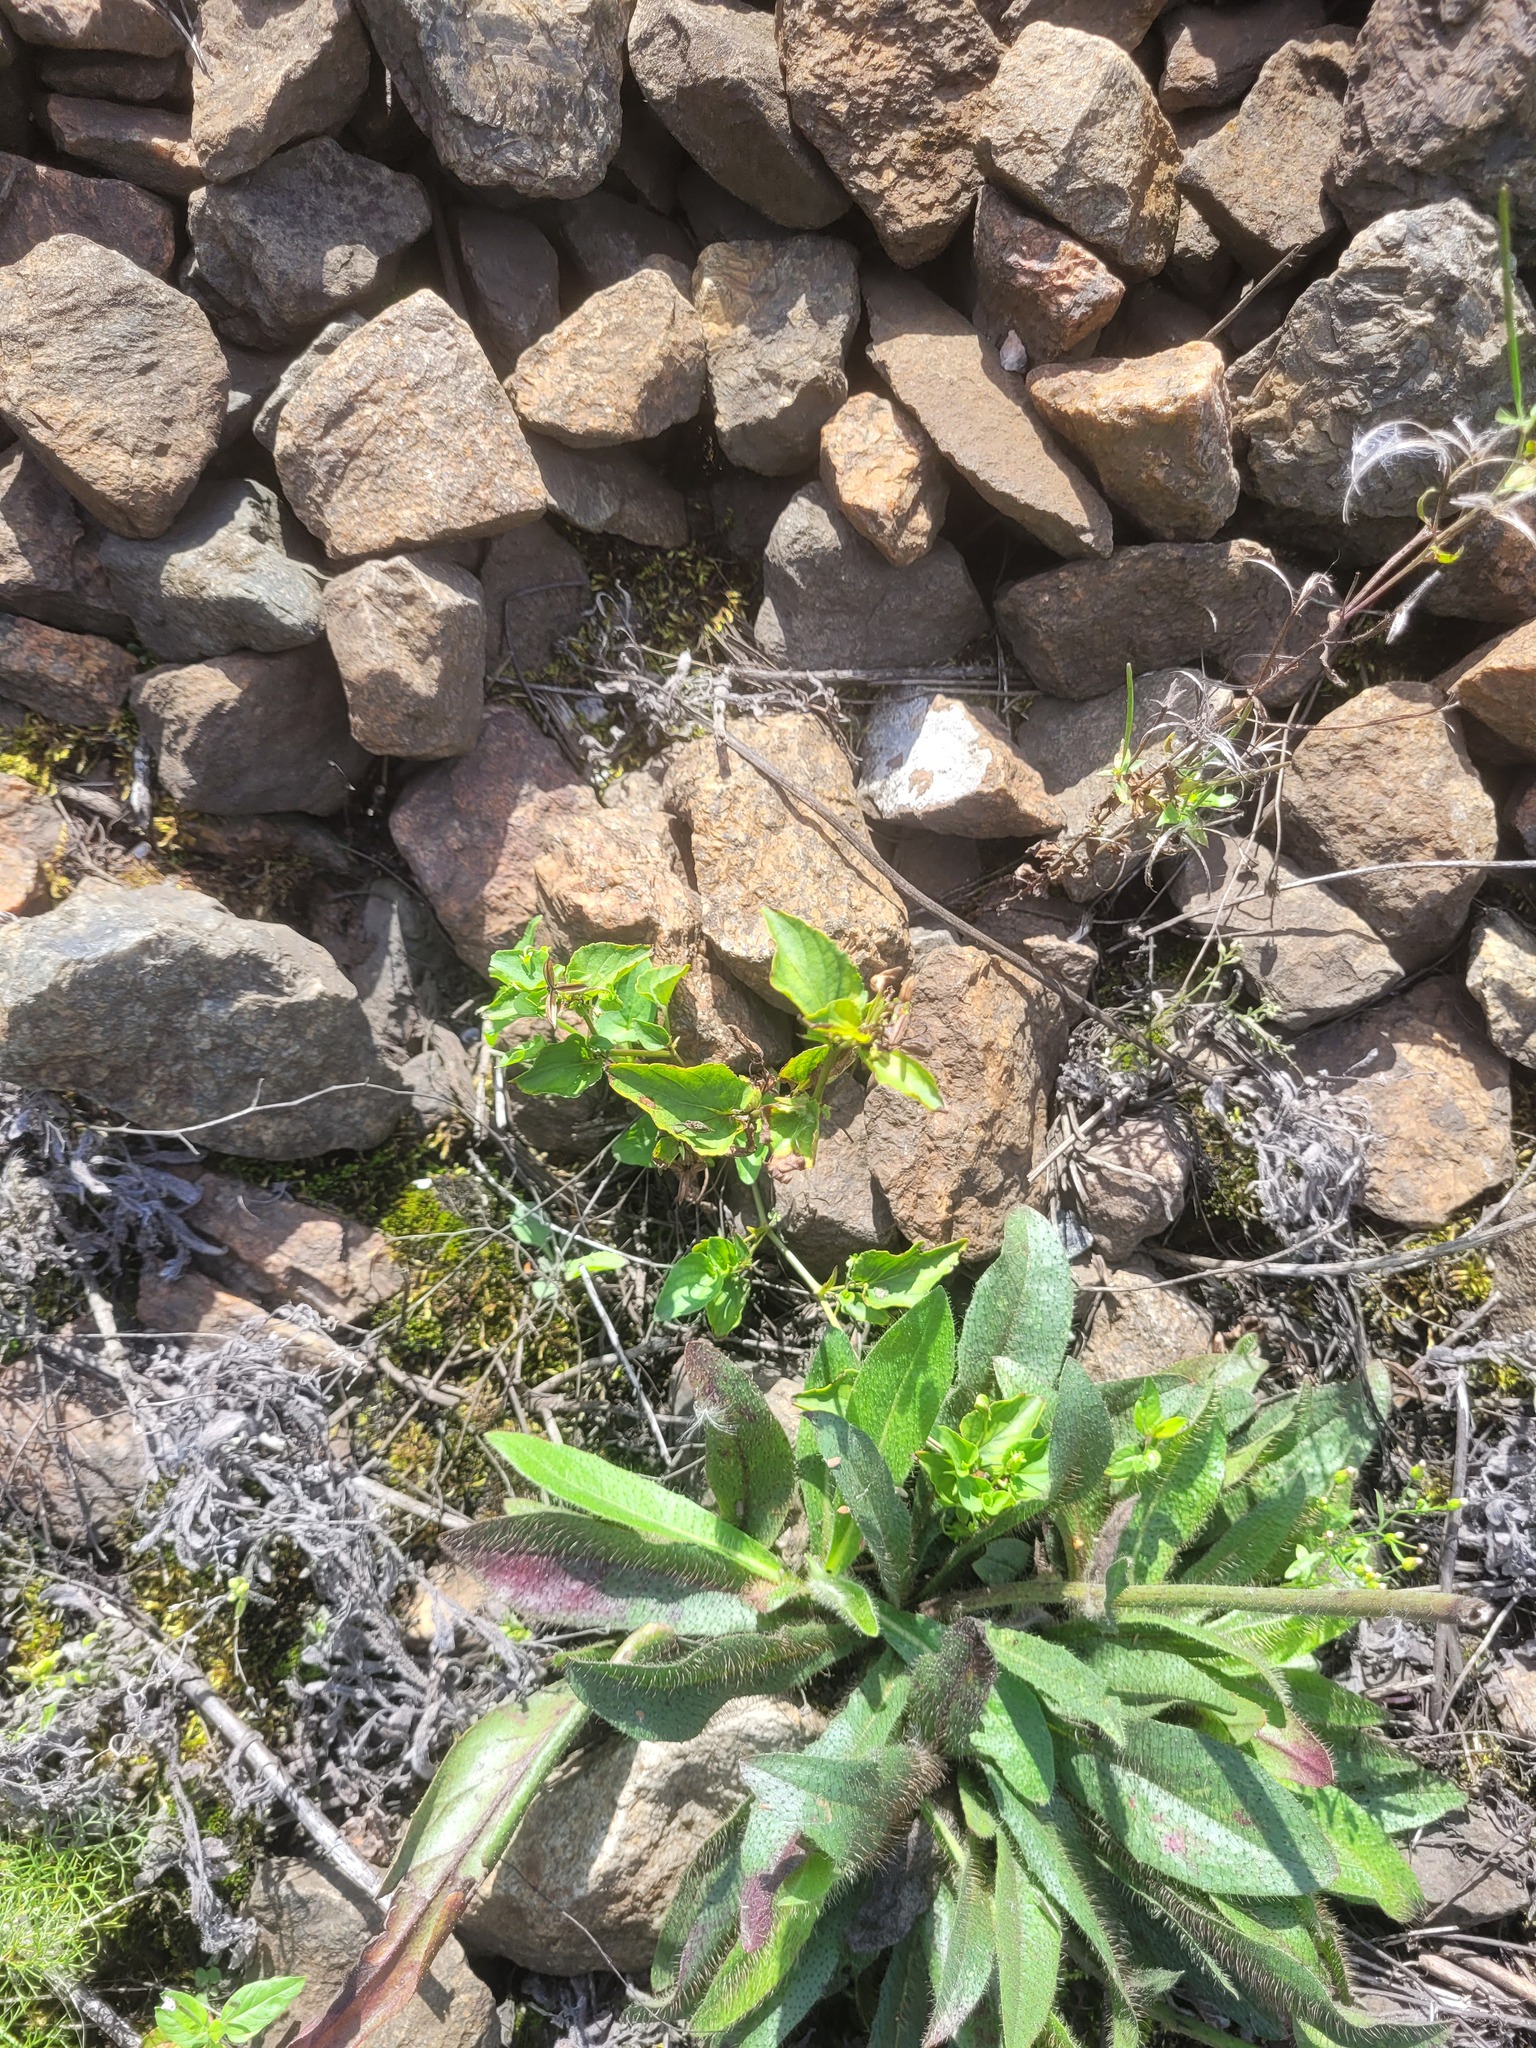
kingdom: Plantae
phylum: Tracheophyta
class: Magnoliopsida
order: Malpighiales
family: Violaceae
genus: Viola
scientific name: Viola
